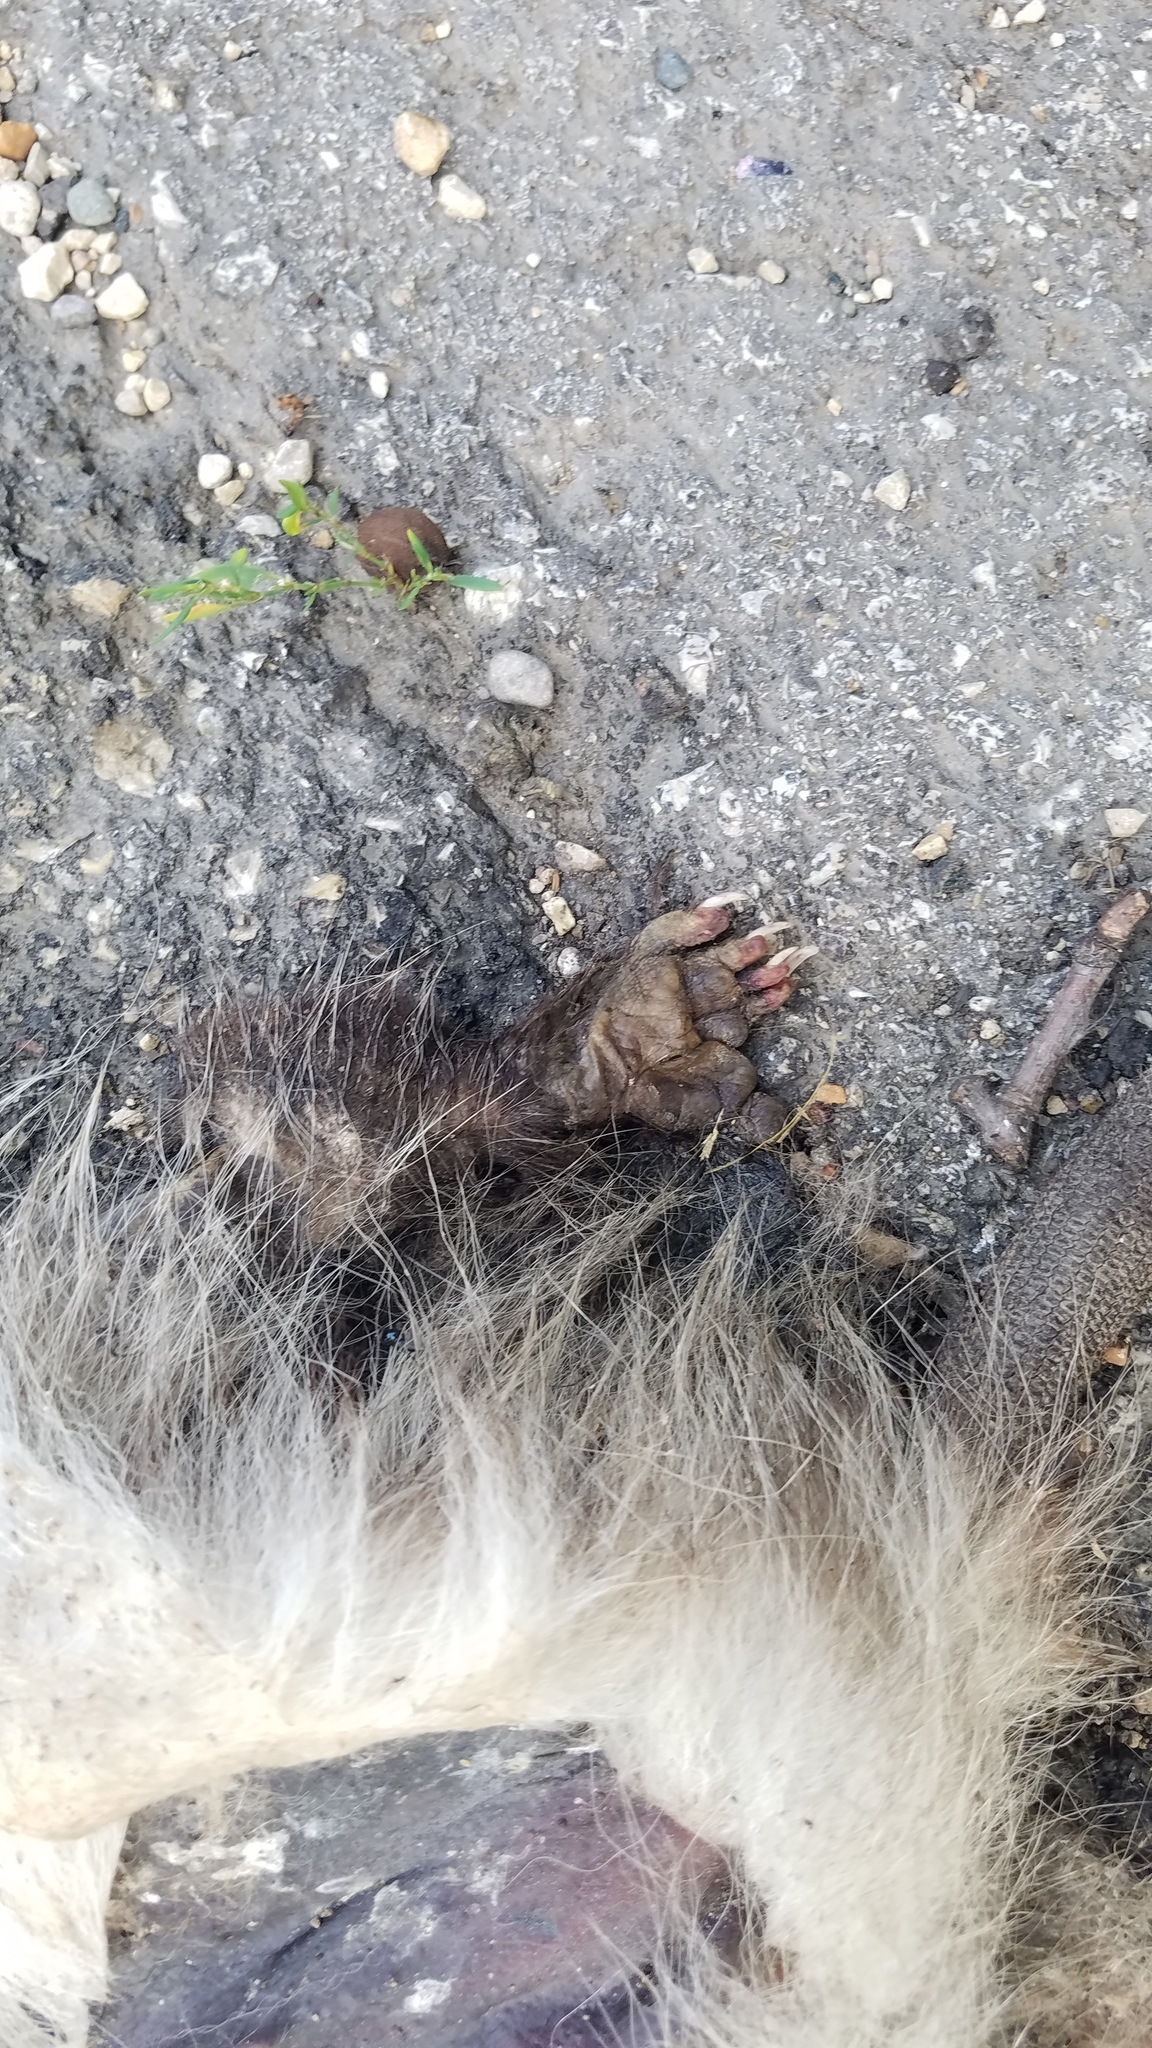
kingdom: Animalia
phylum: Chordata
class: Mammalia
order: Didelphimorphia
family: Didelphidae
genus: Didelphis
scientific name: Didelphis virginiana
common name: Virginia opossum
